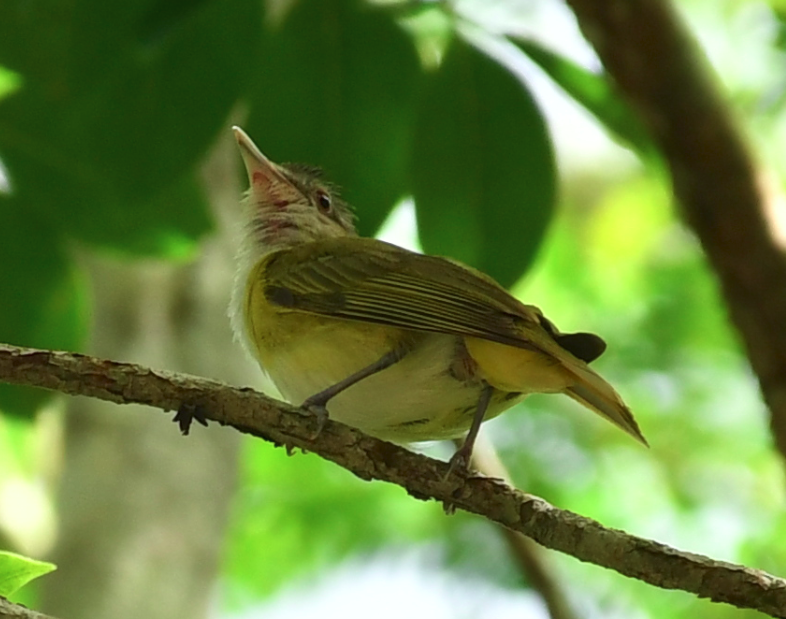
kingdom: Animalia
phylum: Chordata
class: Aves
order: Passeriformes
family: Vireonidae
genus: Vireo
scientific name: Vireo flavoviridis
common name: Yellow-green vireo
